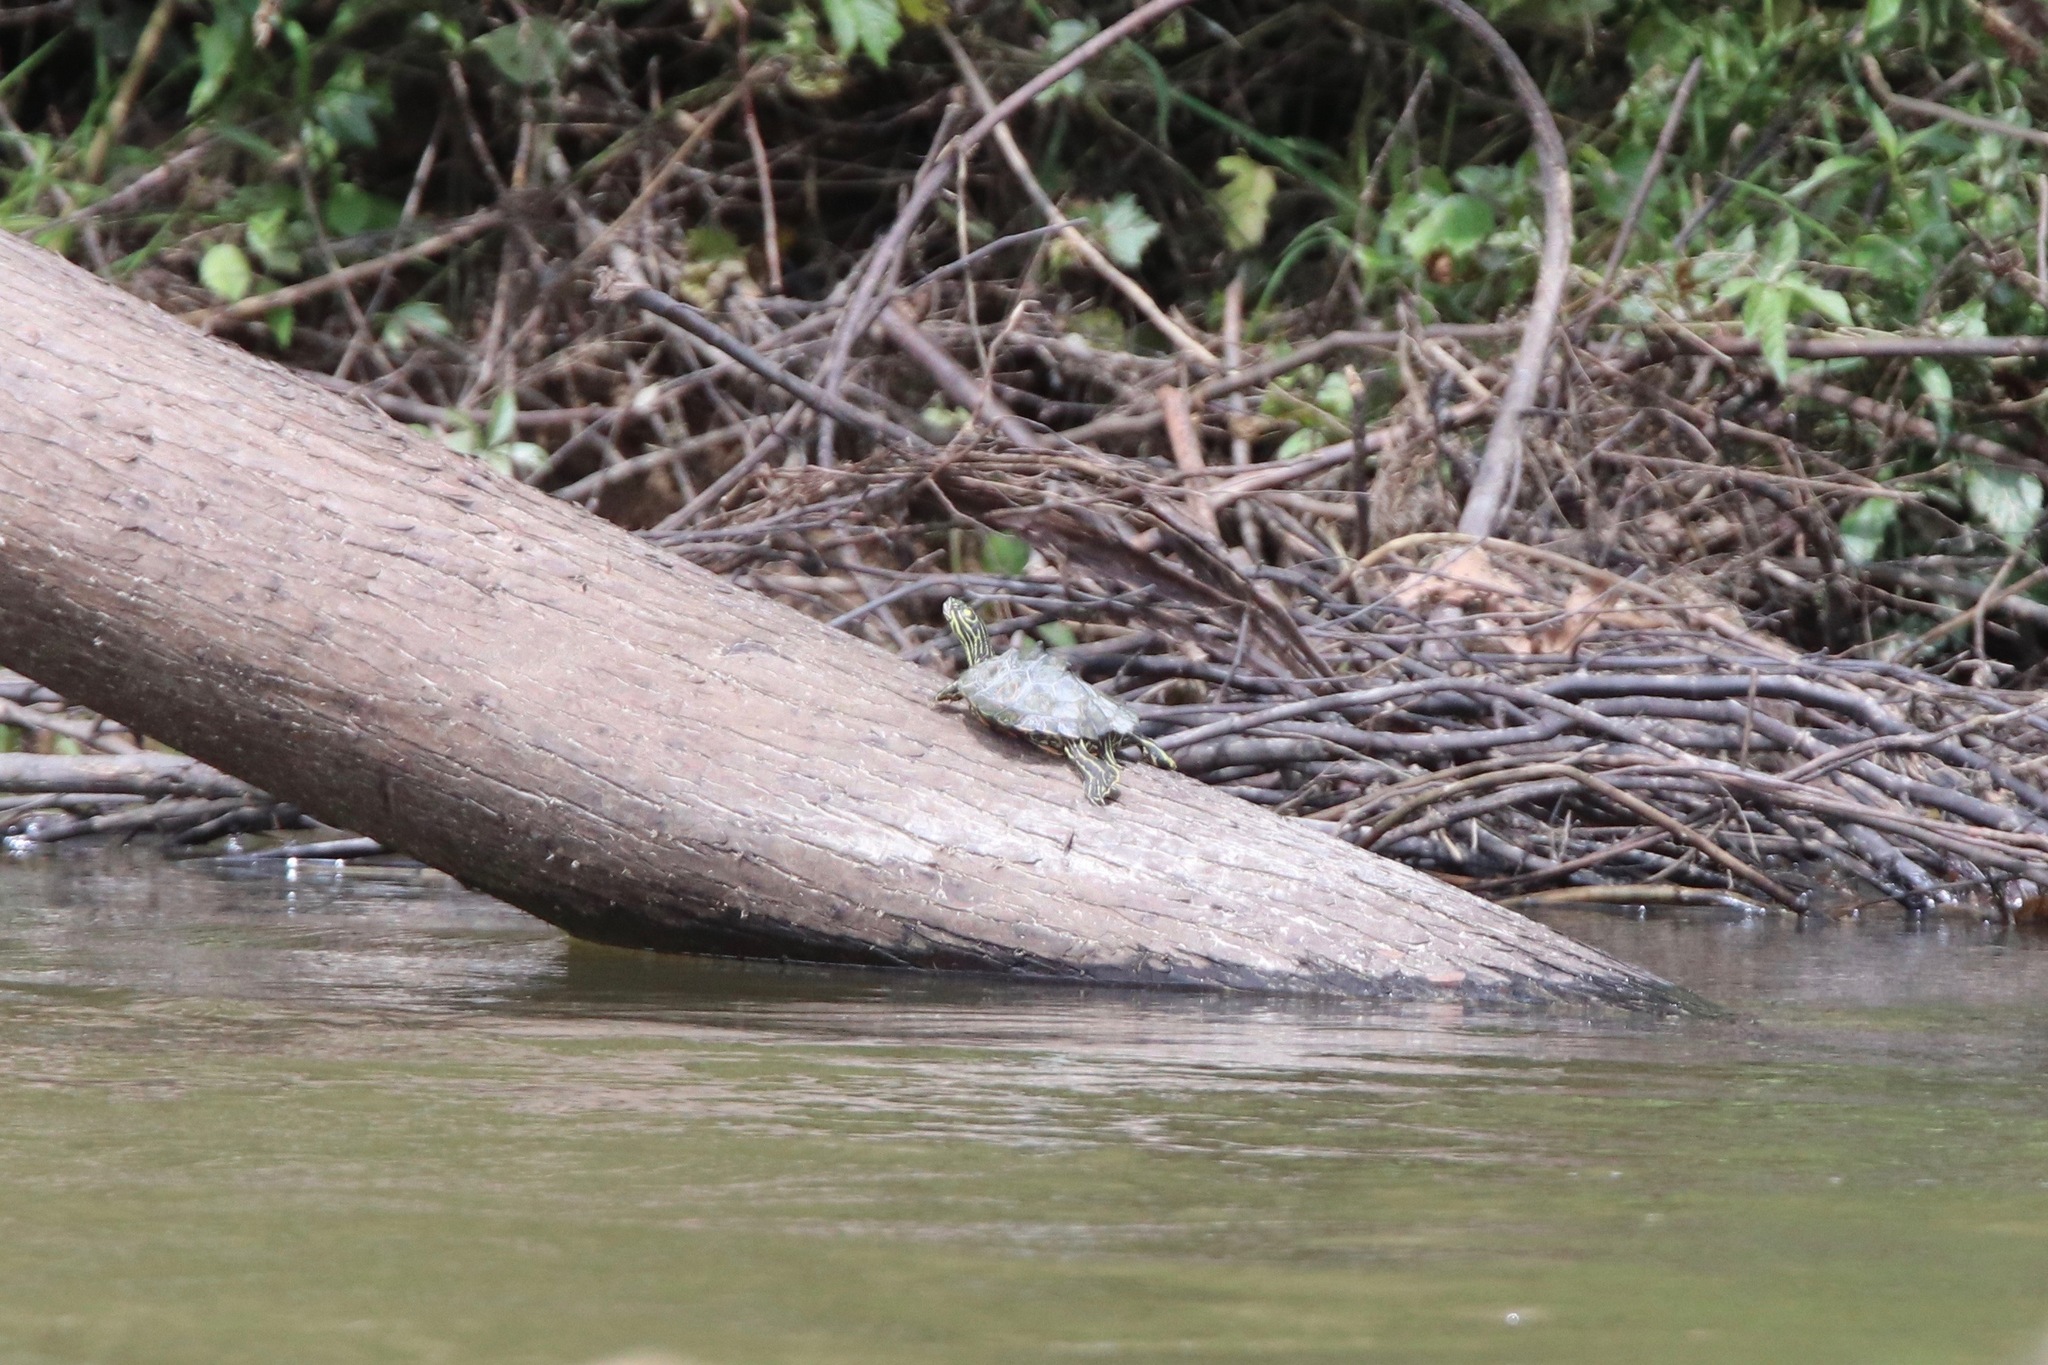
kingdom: Animalia
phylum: Chordata
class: Testudines
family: Emydidae
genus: Graptemys
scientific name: Graptemys oculifera
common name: Ringed map turtle
